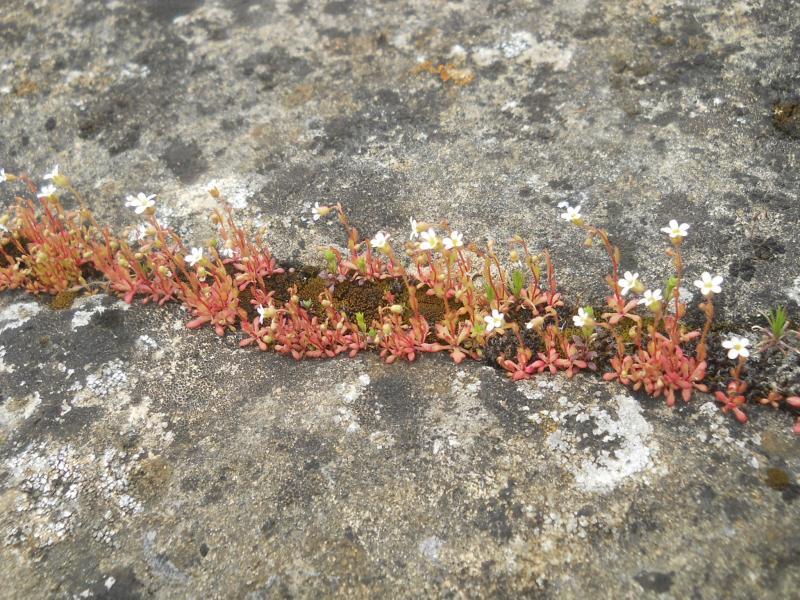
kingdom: Plantae
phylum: Tracheophyta
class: Magnoliopsida
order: Saxifragales
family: Saxifragaceae
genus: Saxifraga
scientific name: Saxifraga tridactylites
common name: Rue-leaved saxifrage
